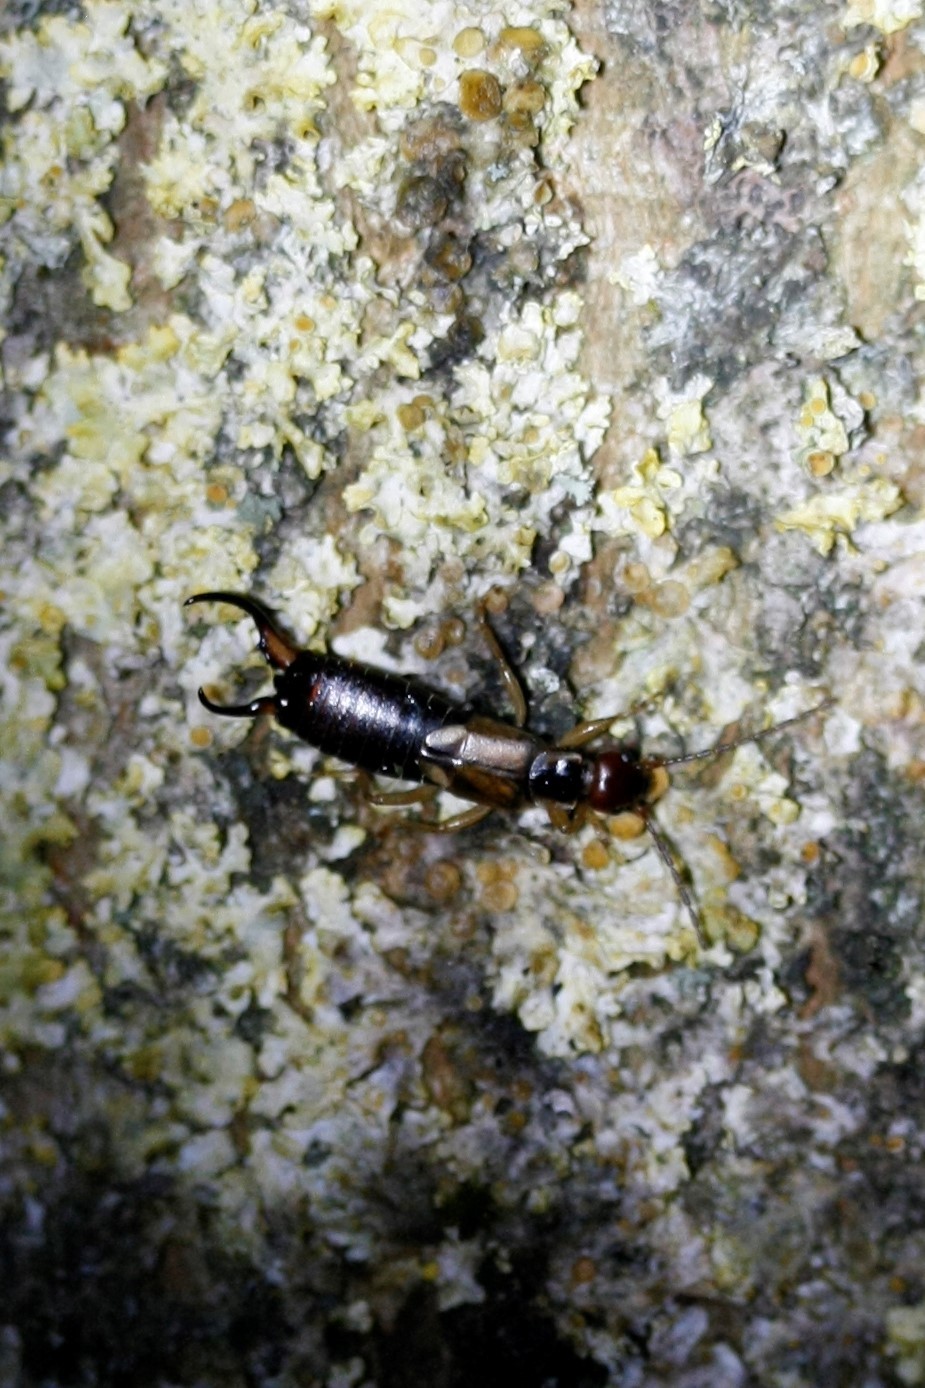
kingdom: Animalia
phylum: Arthropoda
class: Insecta
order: Dermaptera
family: Forficulidae
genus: Forficula
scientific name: Forficula
